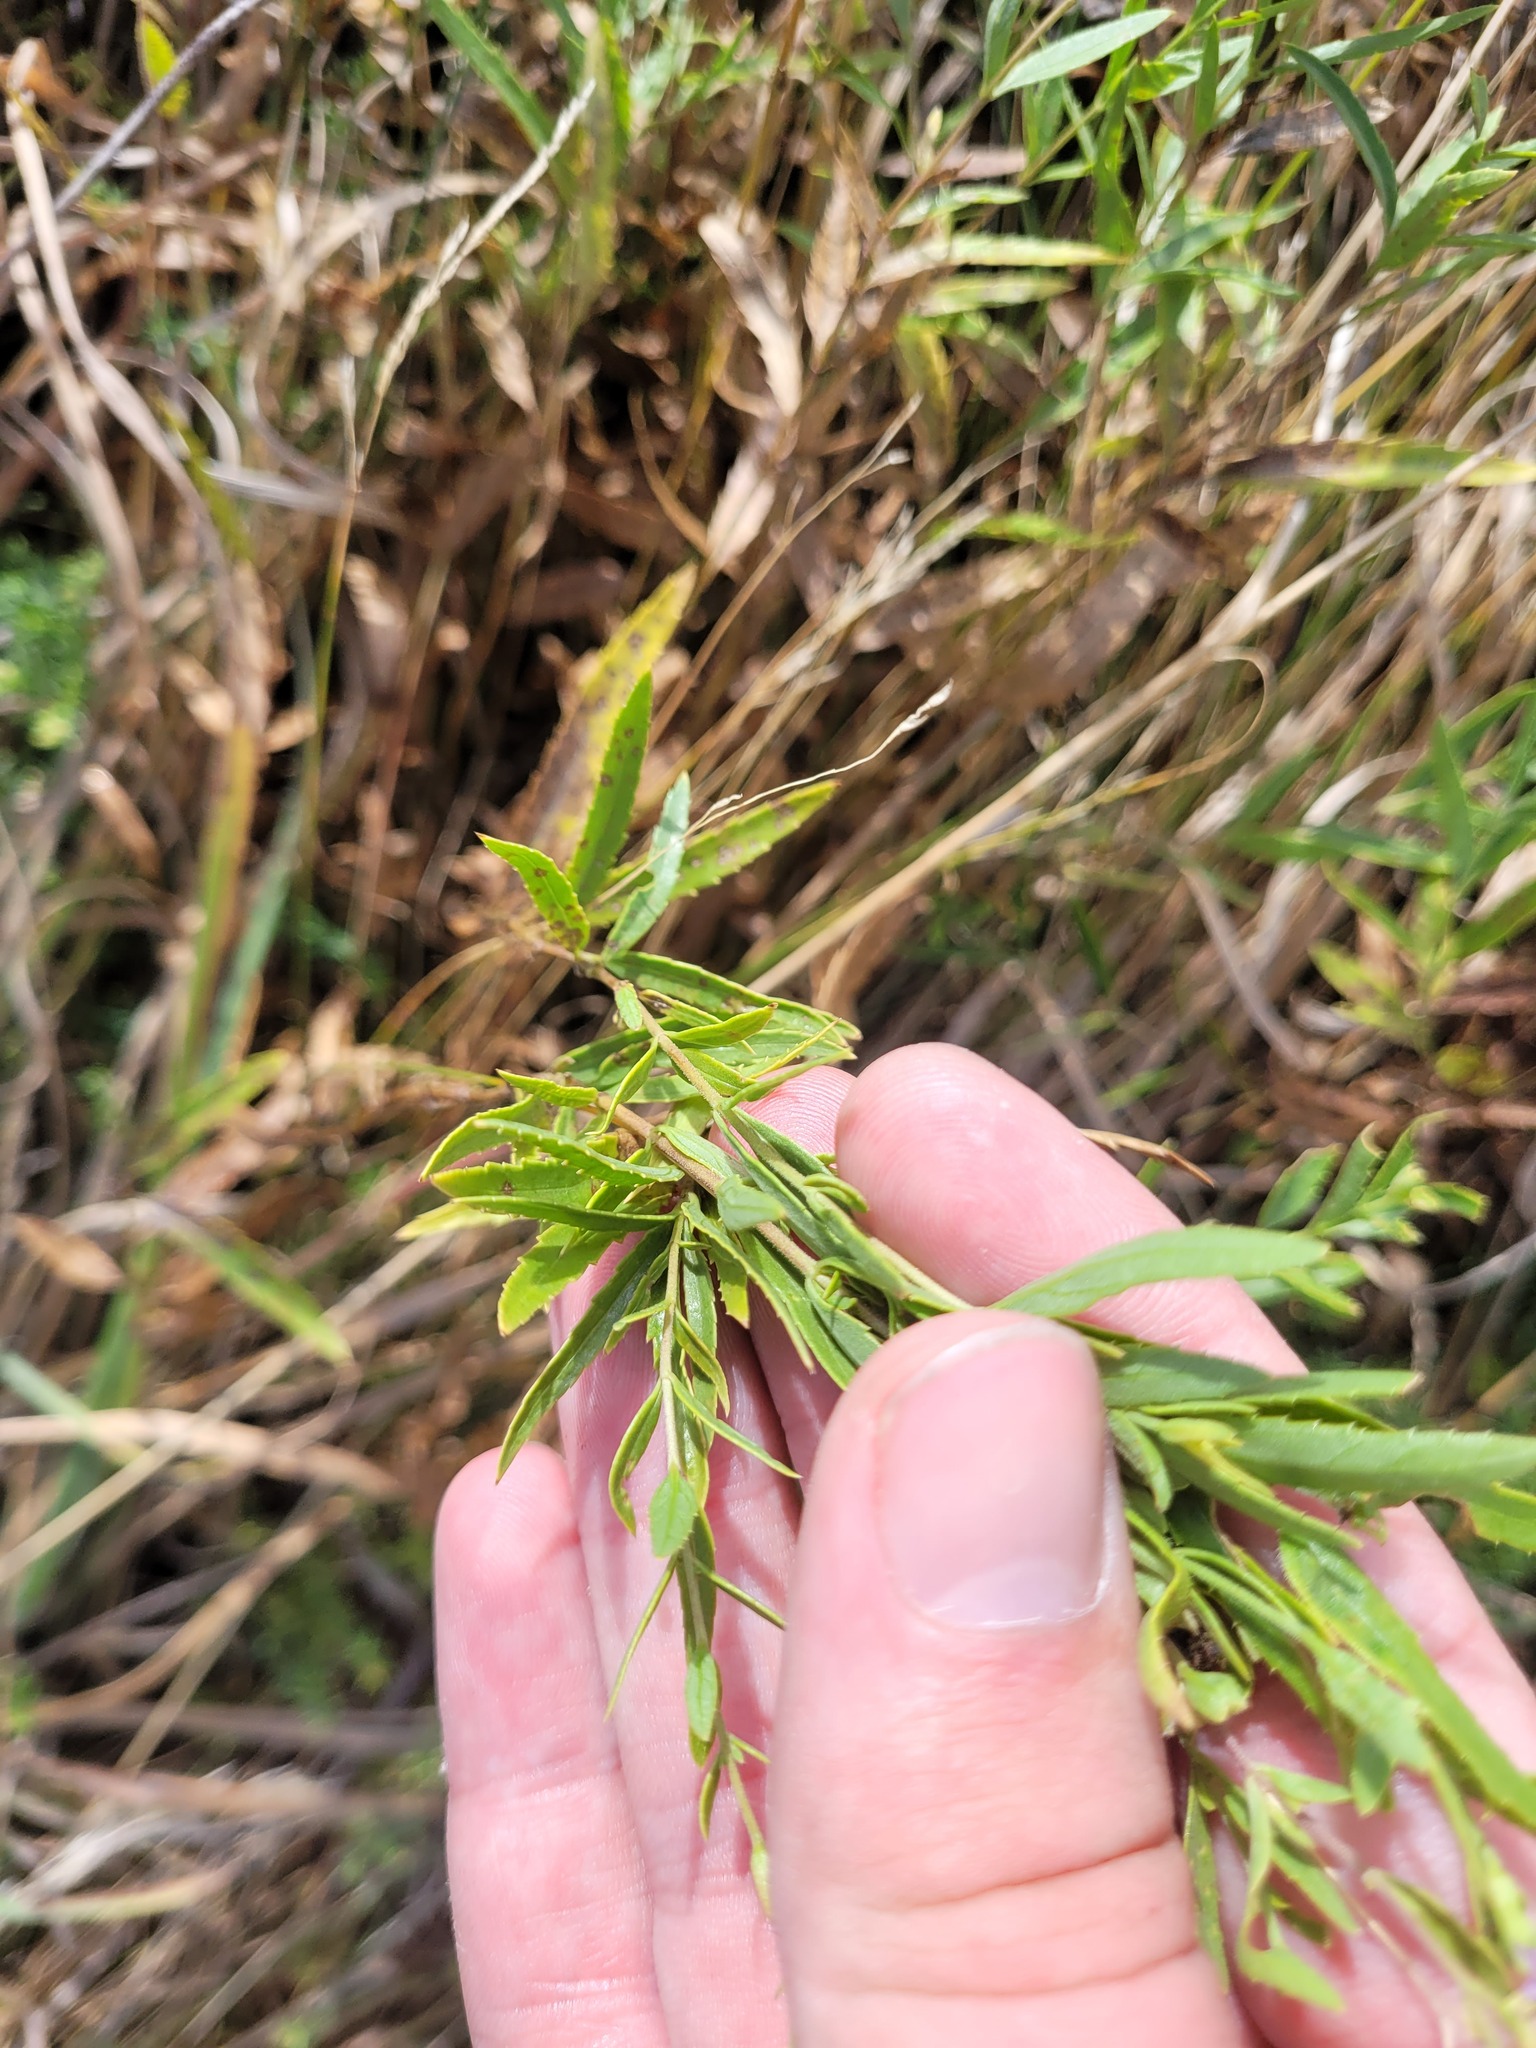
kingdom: Plantae
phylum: Tracheophyta
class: Magnoliopsida
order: Lamiales
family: Plantaginaceae
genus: Veronica
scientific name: Veronica spuria
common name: Bastard speedwell
